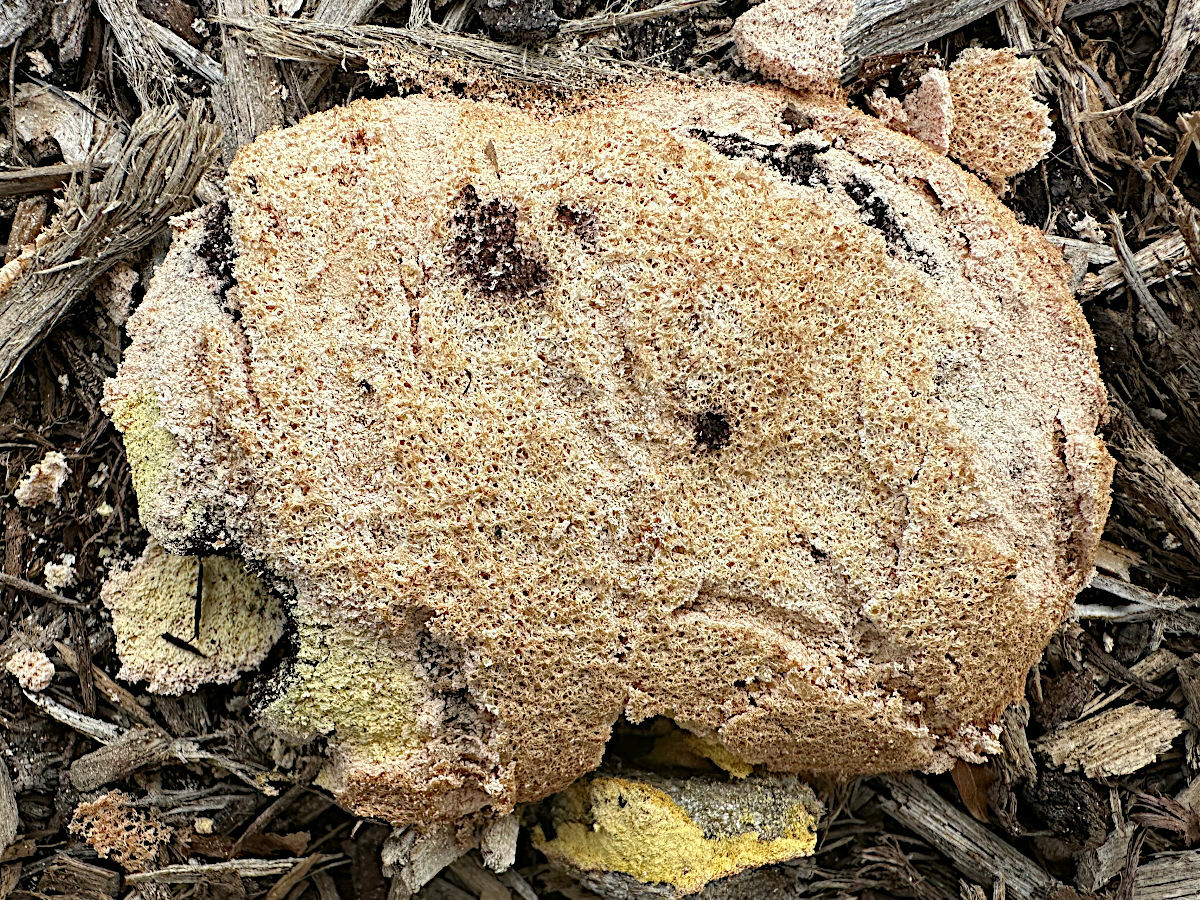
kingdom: Protozoa
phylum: Mycetozoa
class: Myxomycetes
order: Physarales
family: Physaraceae
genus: Fuligo
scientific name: Fuligo septica
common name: Dog vomit slime mold
